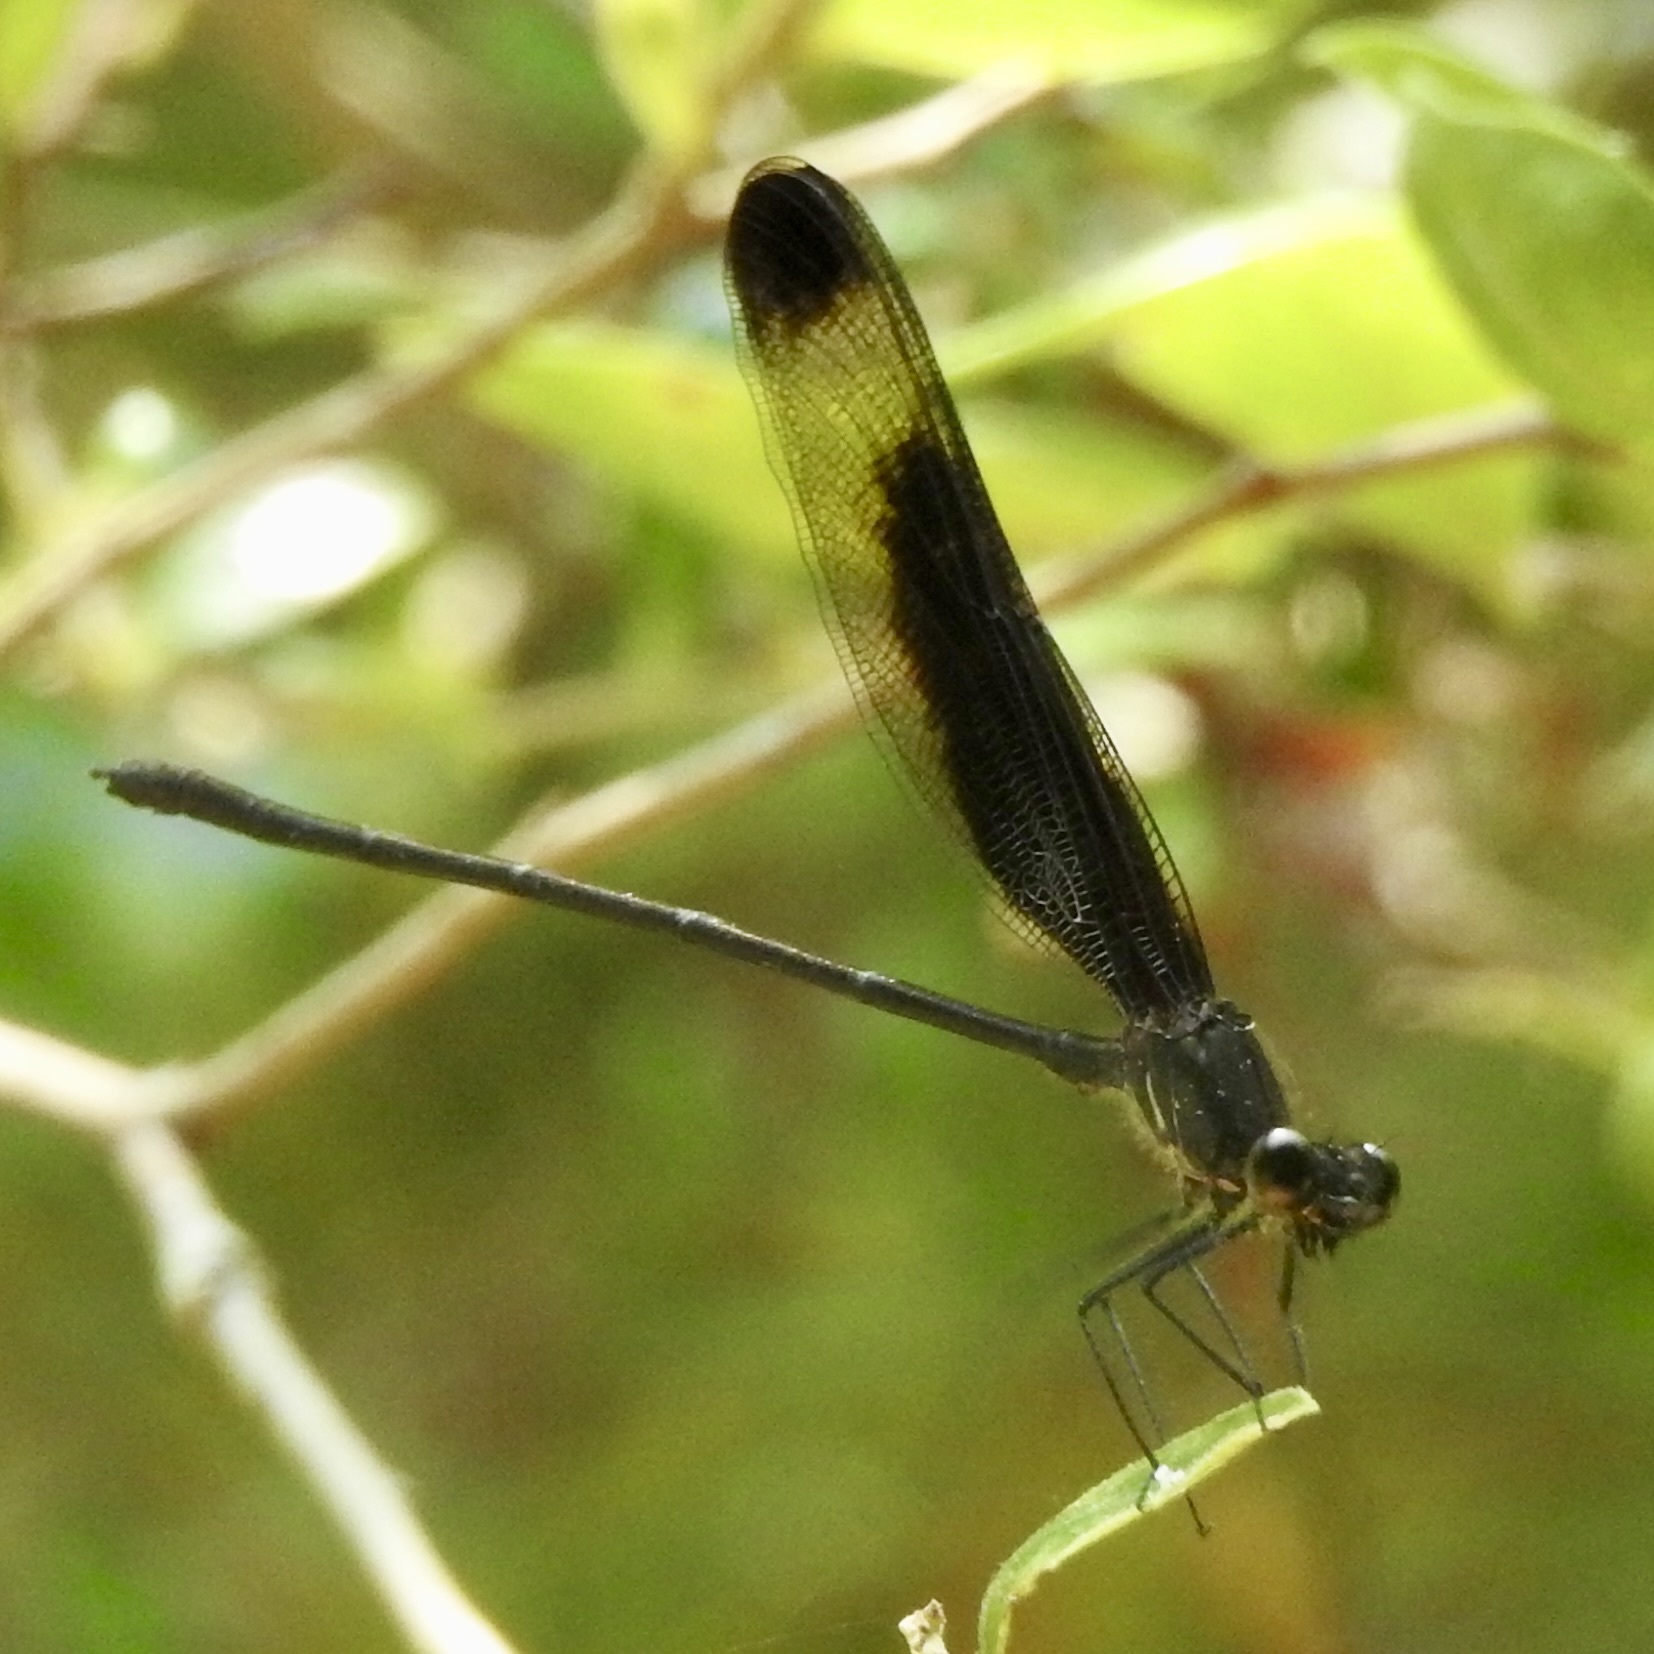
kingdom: Animalia
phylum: Arthropoda
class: Insecta
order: Odonata
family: Calopterygidae
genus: Hetaerina
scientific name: Hetaerina titia
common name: Smoky rubyspot
